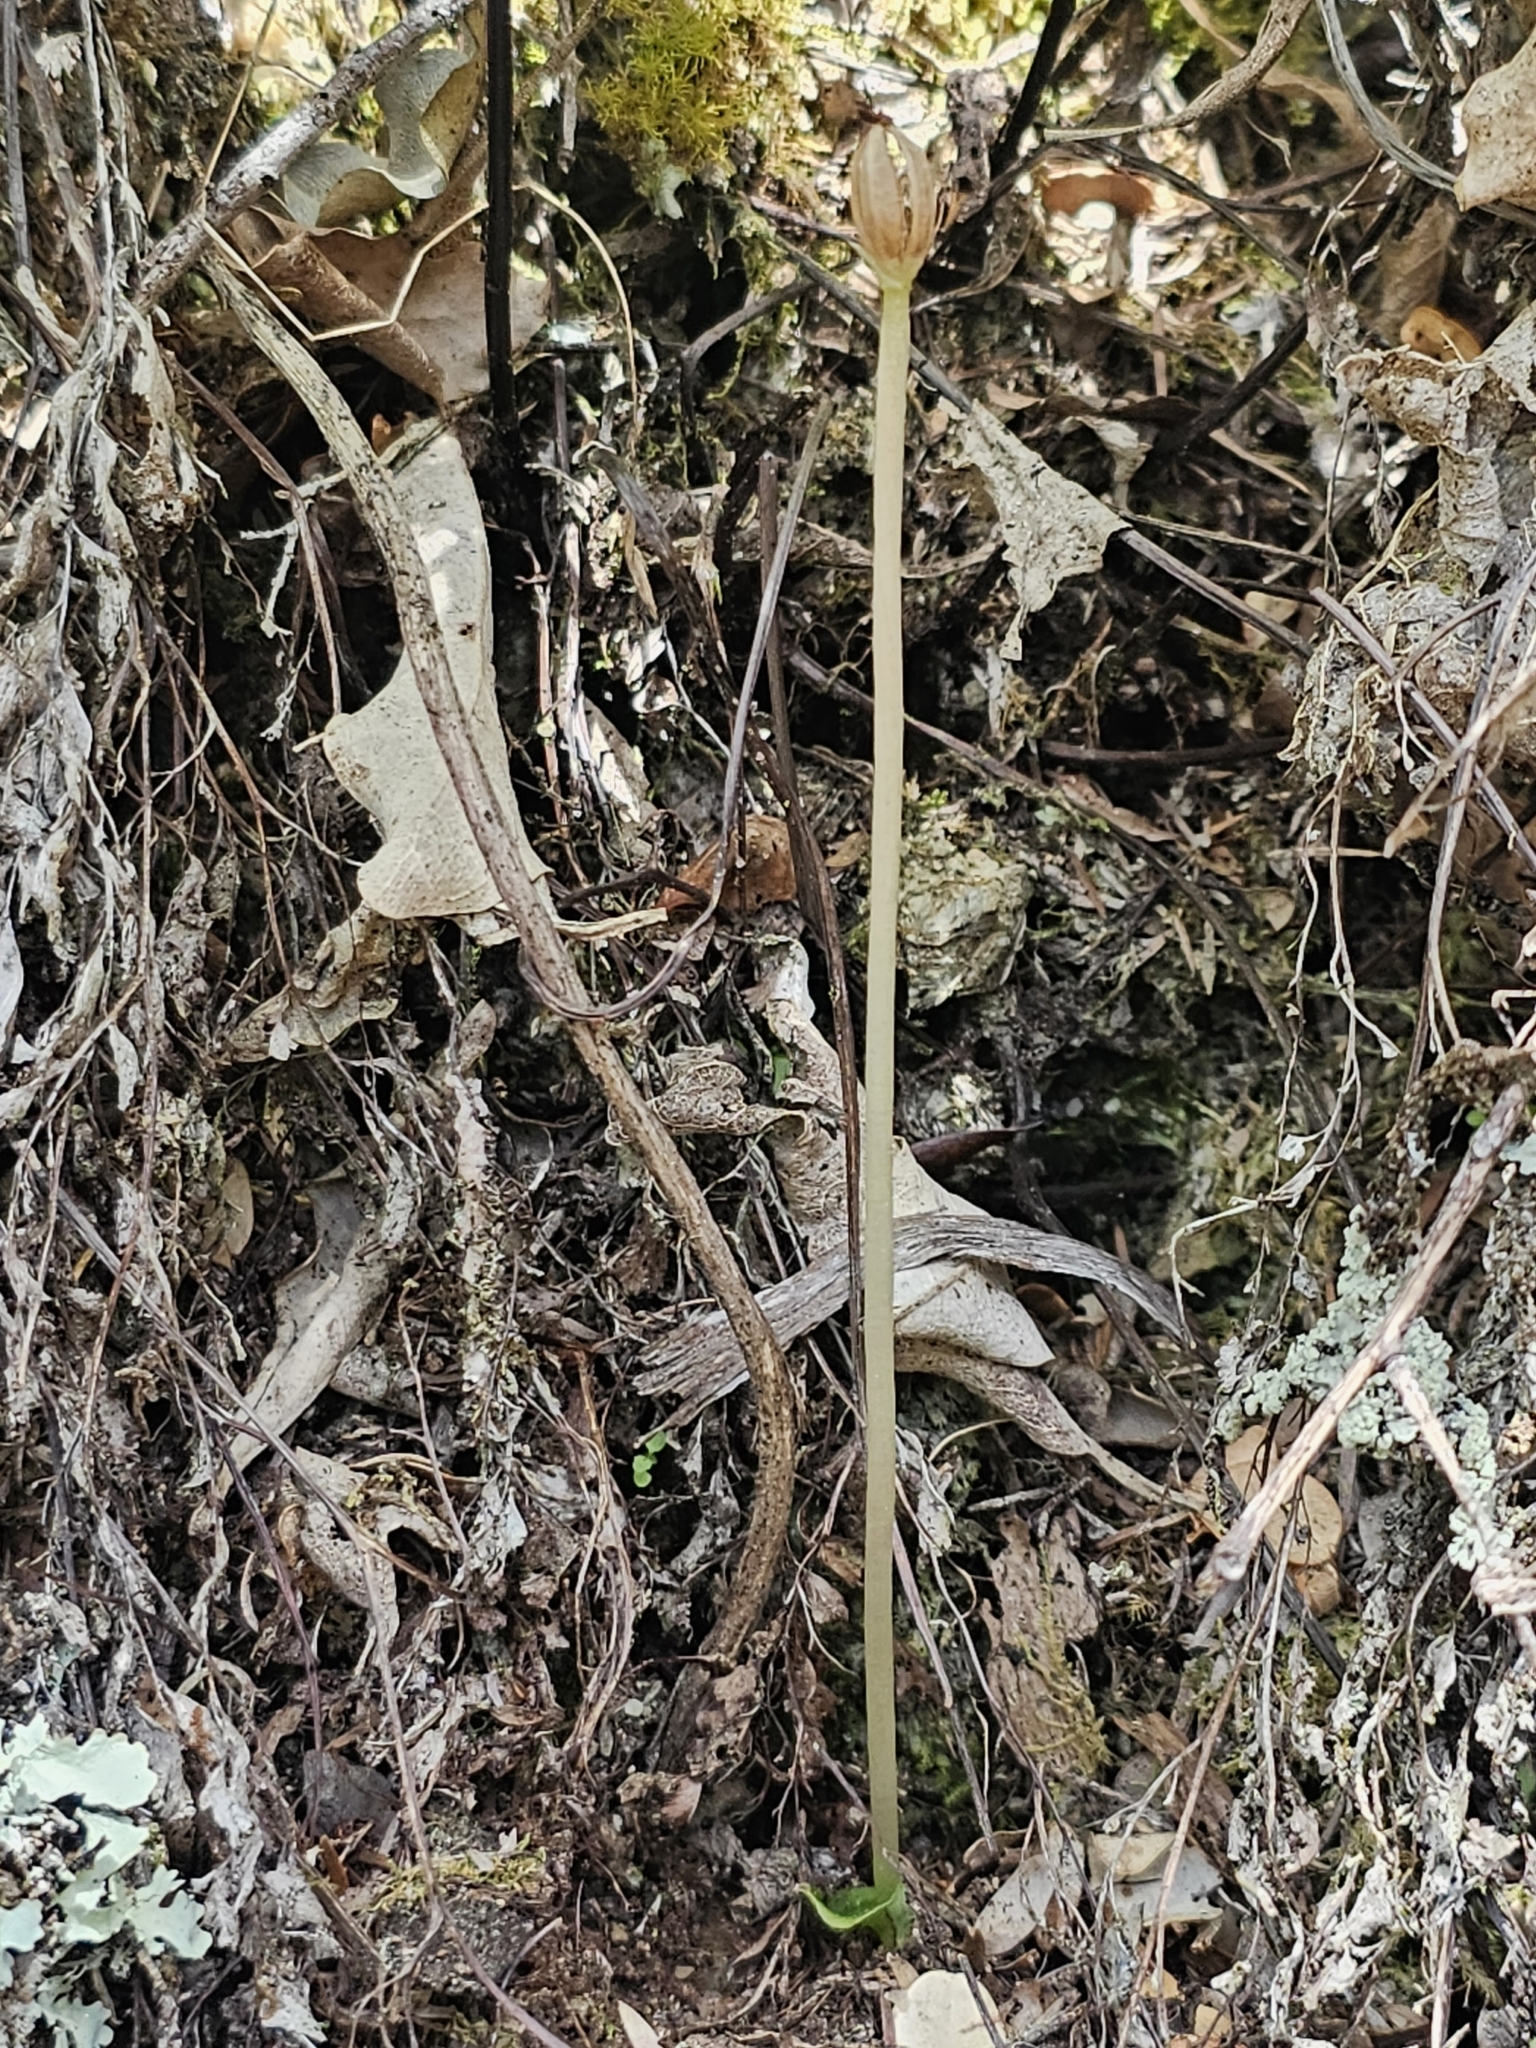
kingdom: Plantae
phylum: Tracheophyta
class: Liliopsida
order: Asparagales
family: Orchidaceae
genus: Corybas
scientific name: Corybas cheesemanii
